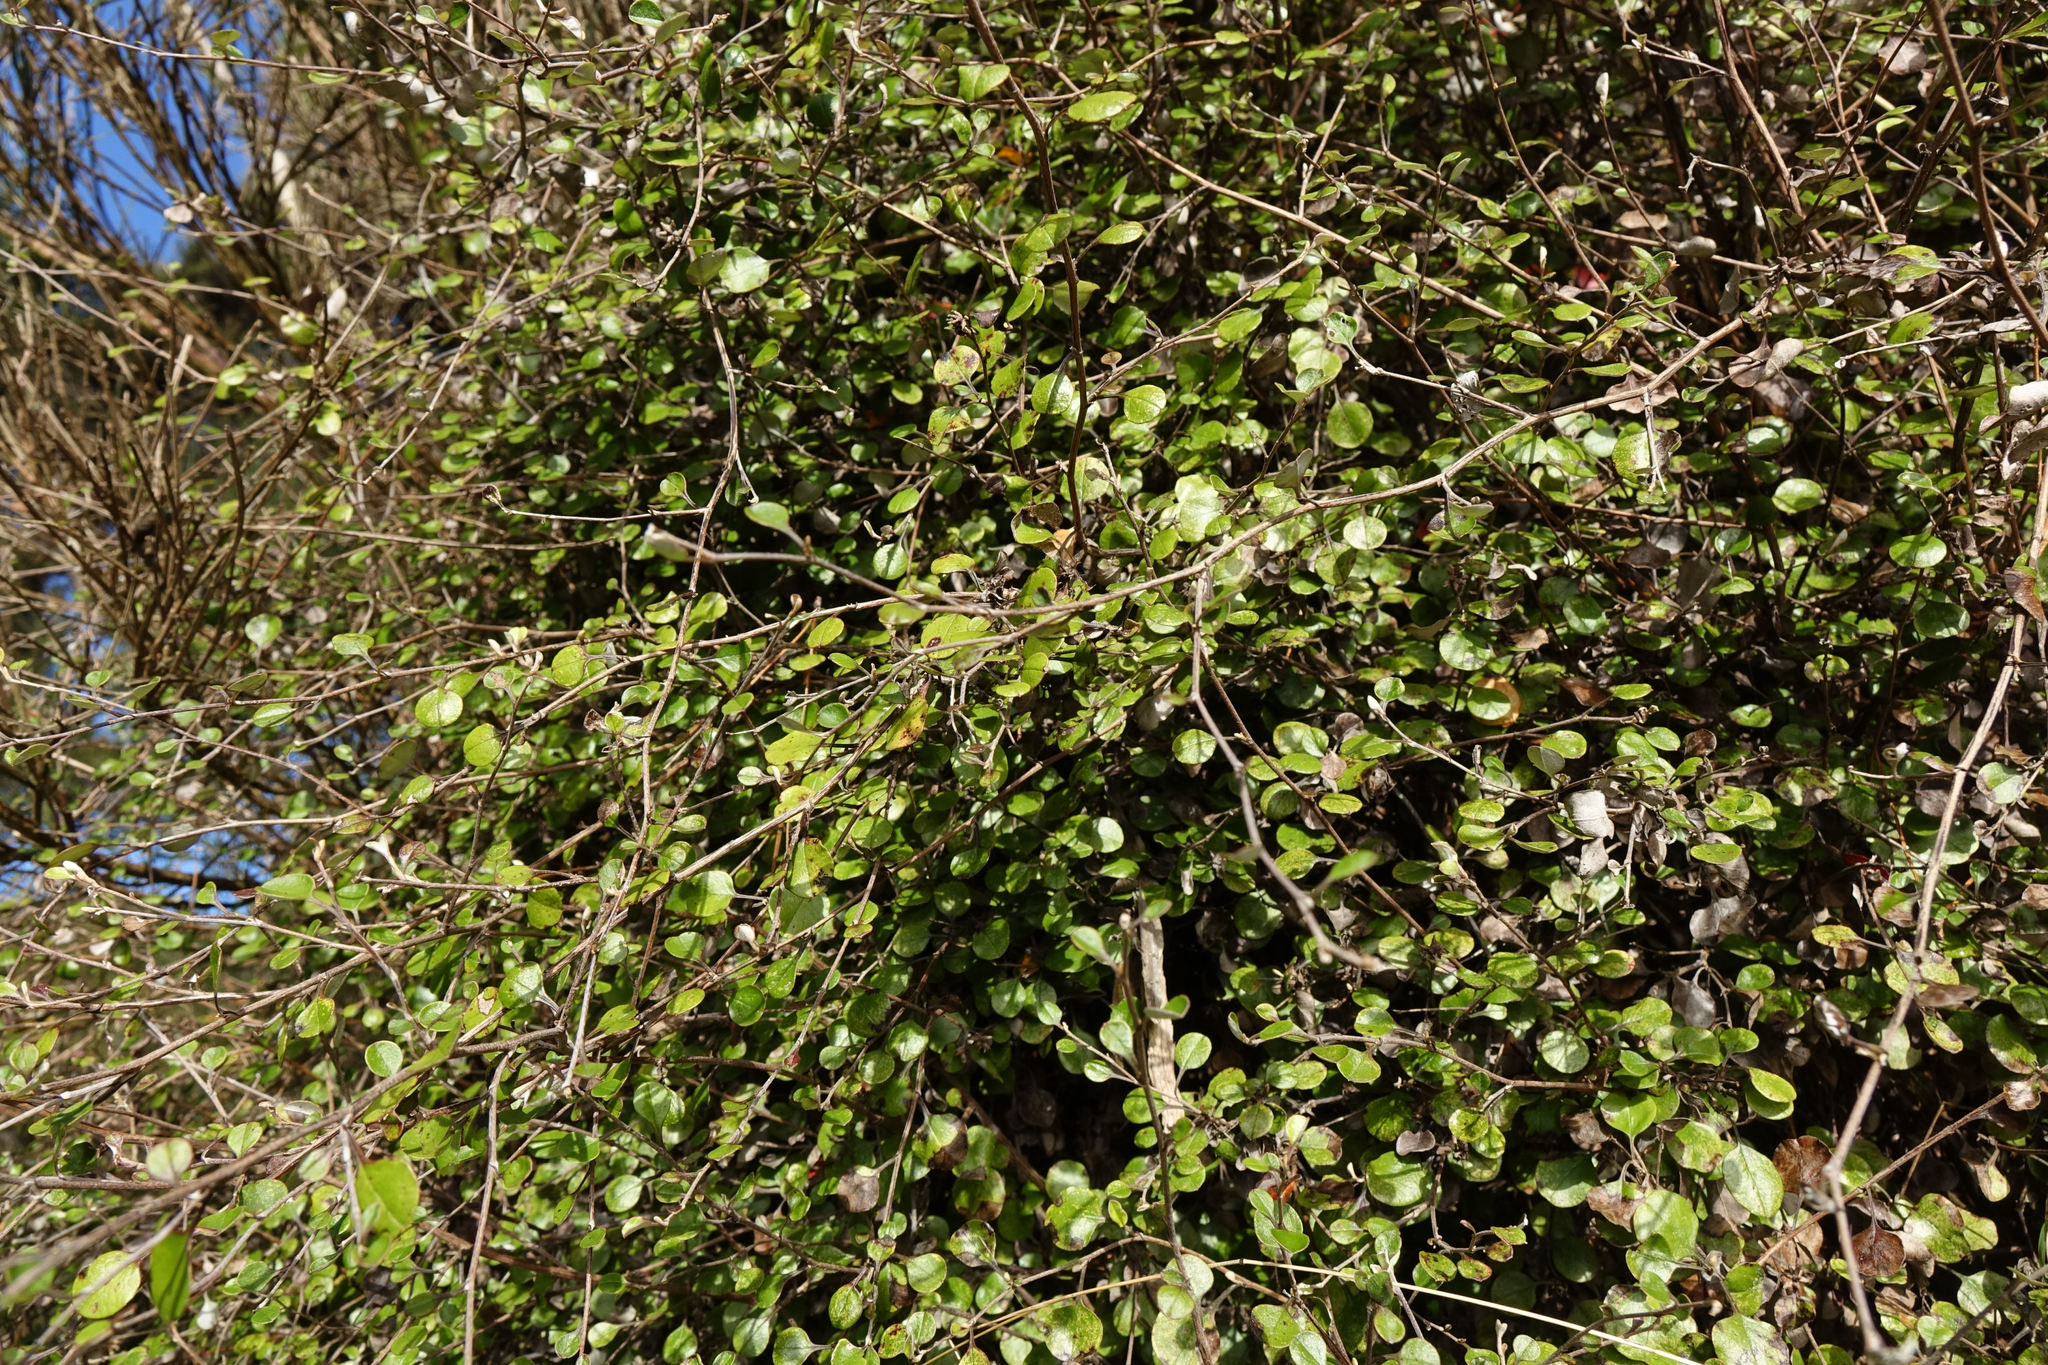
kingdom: Plantae
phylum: Tracheophyta
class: Magnoliopsida
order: Asterales
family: Asteraceae
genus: Ozothamnus
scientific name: Ozothamnus glomeratus
